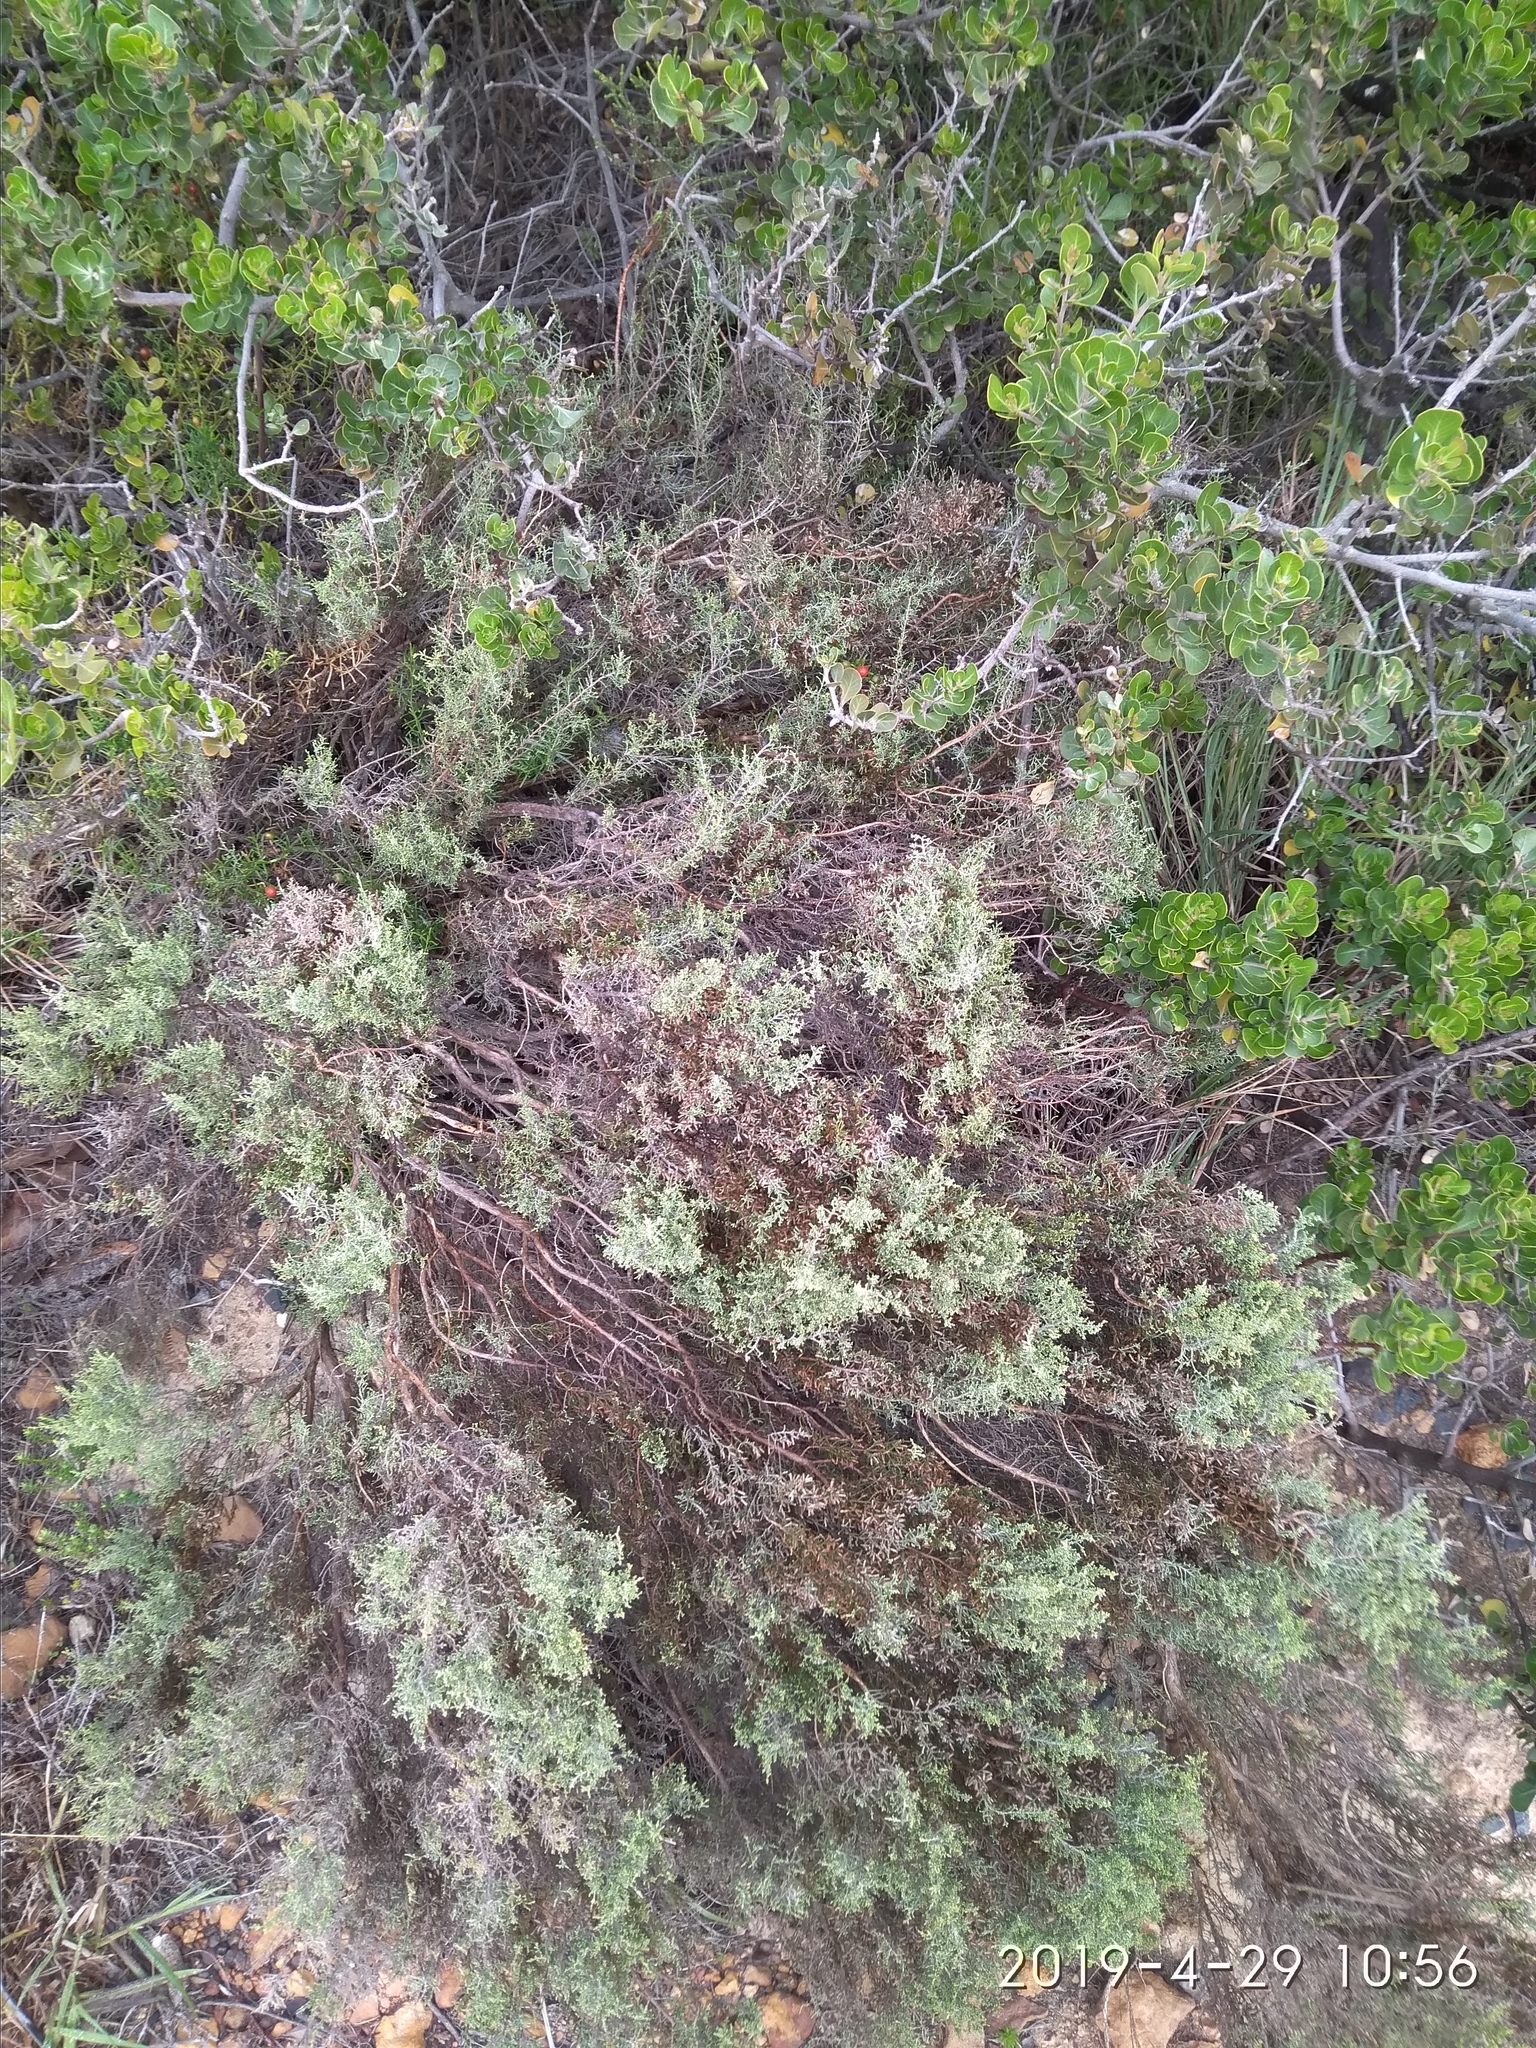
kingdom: Plantae
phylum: Tracheophyta
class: Magnoliopsida
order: Asterales
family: Asteraceae
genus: Dicerothamnus
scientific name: Dicerothamnus rhinocerotis
